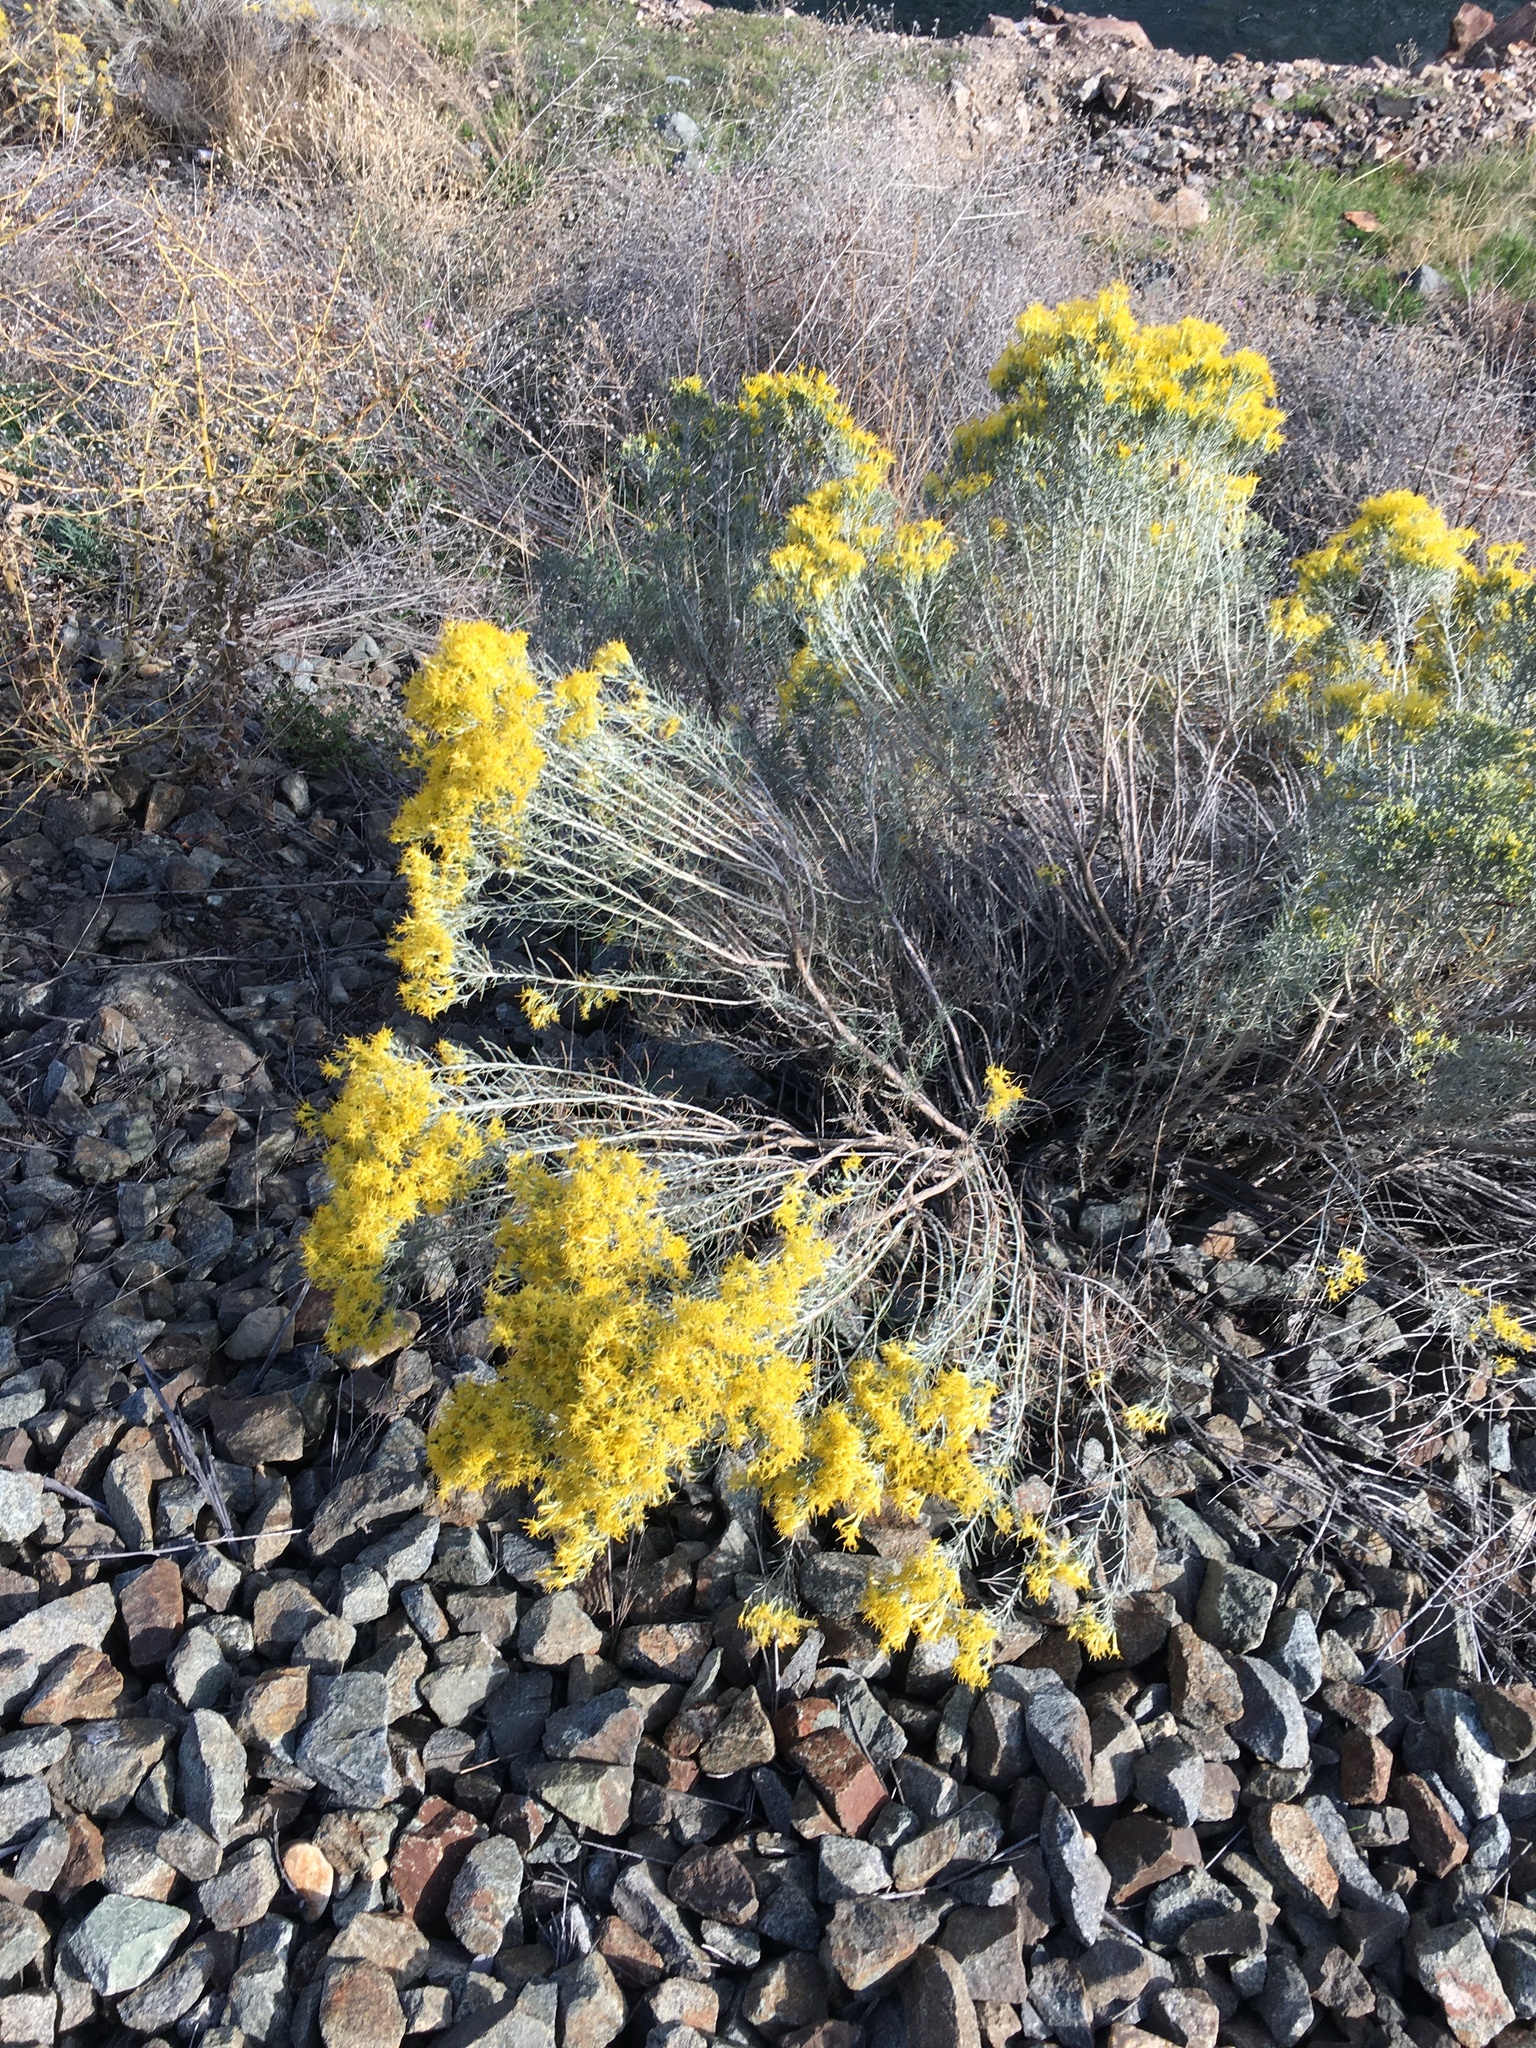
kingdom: Plantae
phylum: Tracheophyta
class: Magnoliopsida
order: Asterales
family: Asteraceae
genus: Ericameria
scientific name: Ericameria nauseosa
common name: Rubber rabbitbrush
